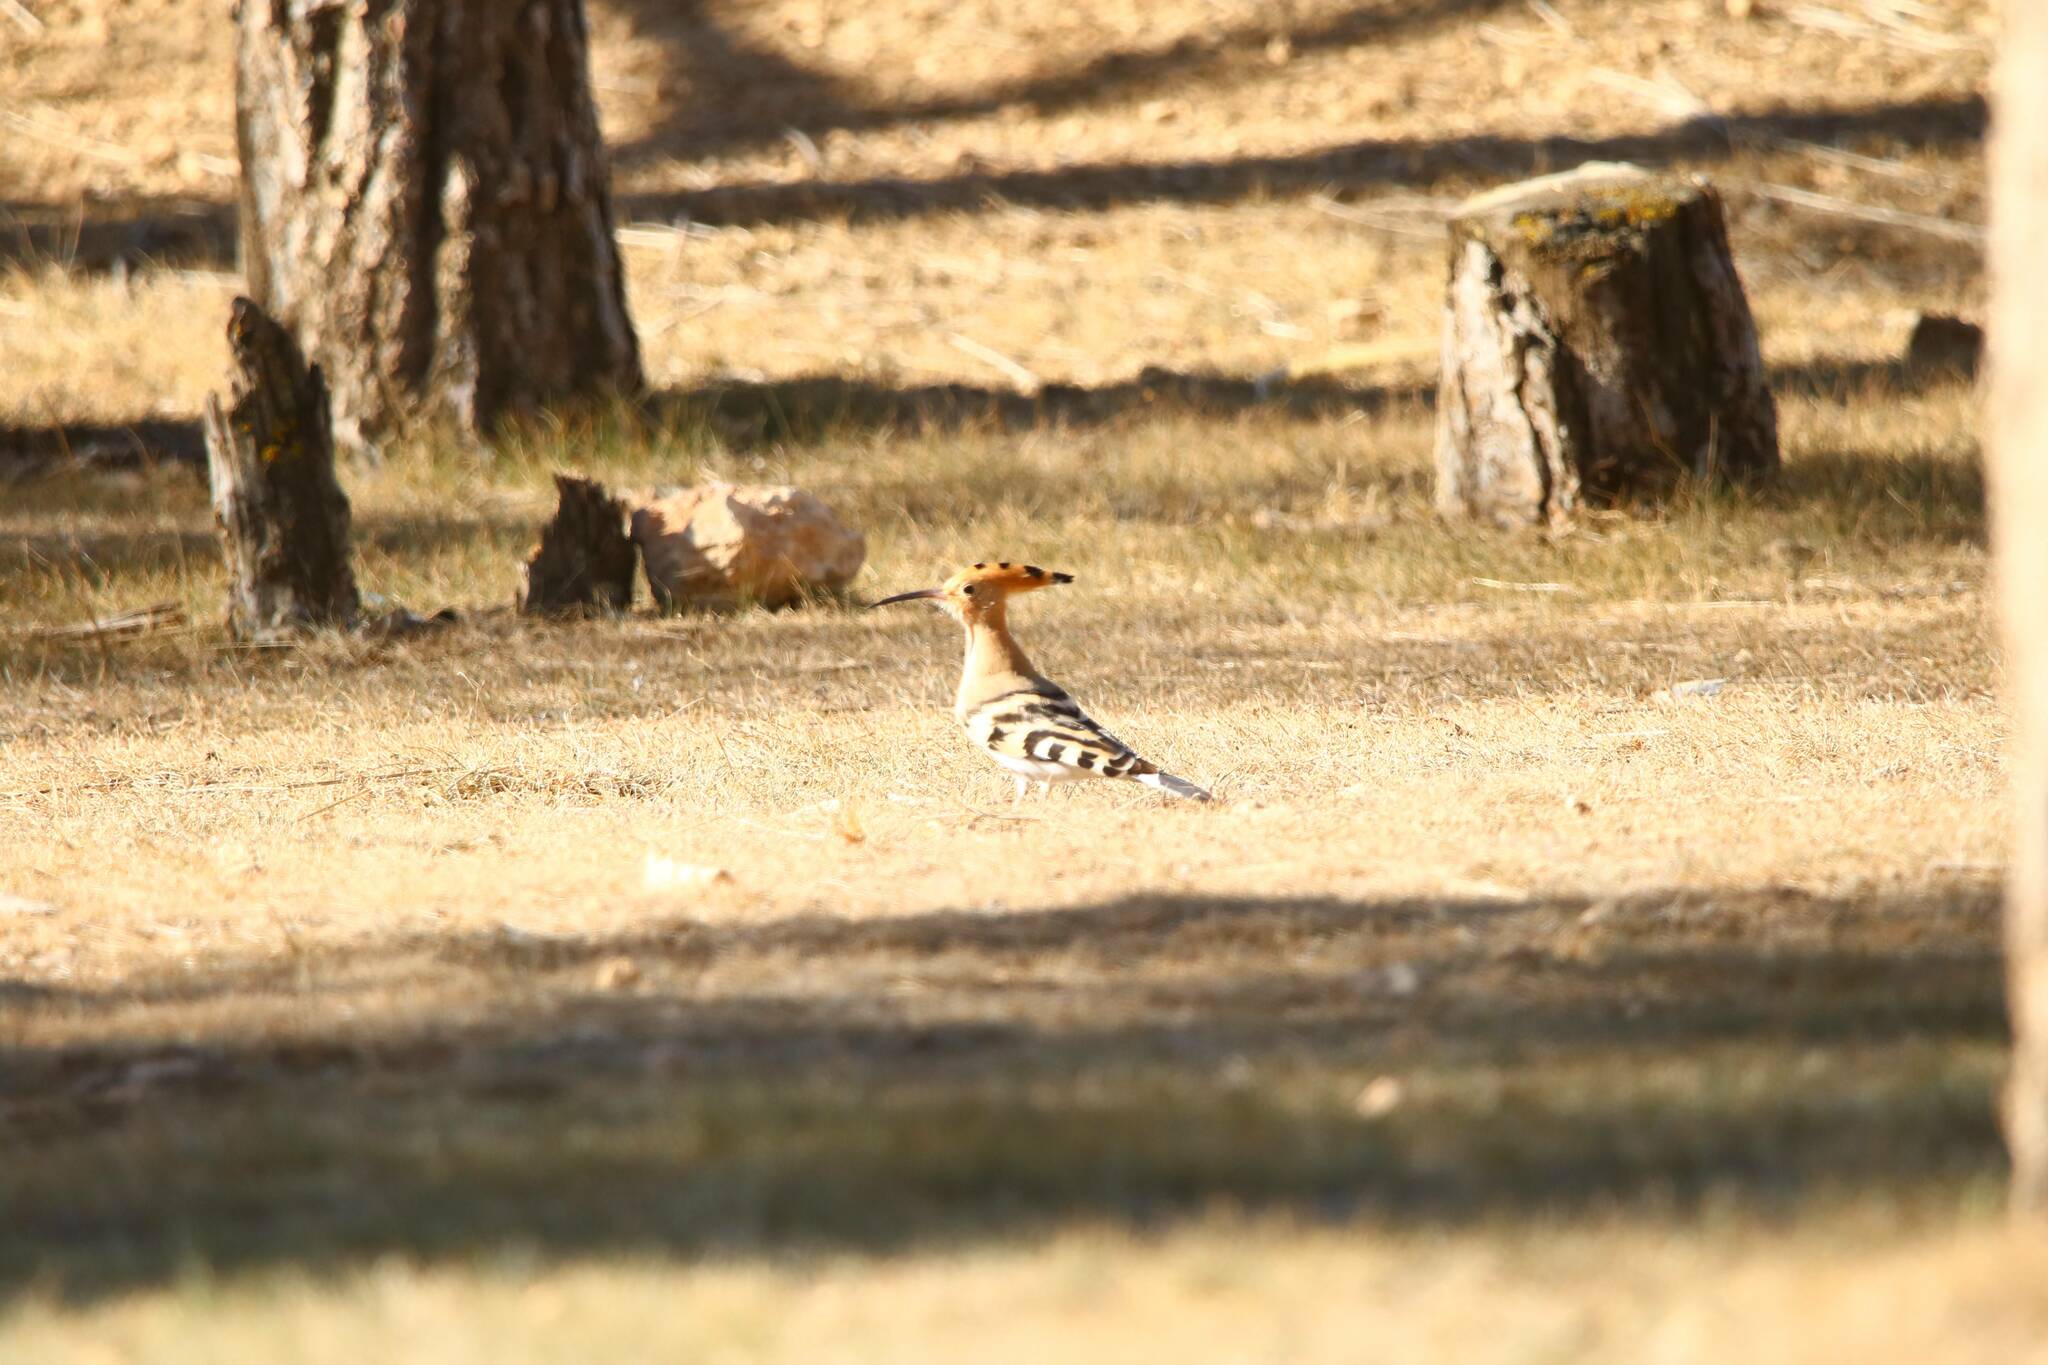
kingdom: Animalia
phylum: Chordata
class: Aves
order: Bucerotiformes
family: Upupidae
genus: Upupa
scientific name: Upupa epops
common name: Eurasian hoopoe
